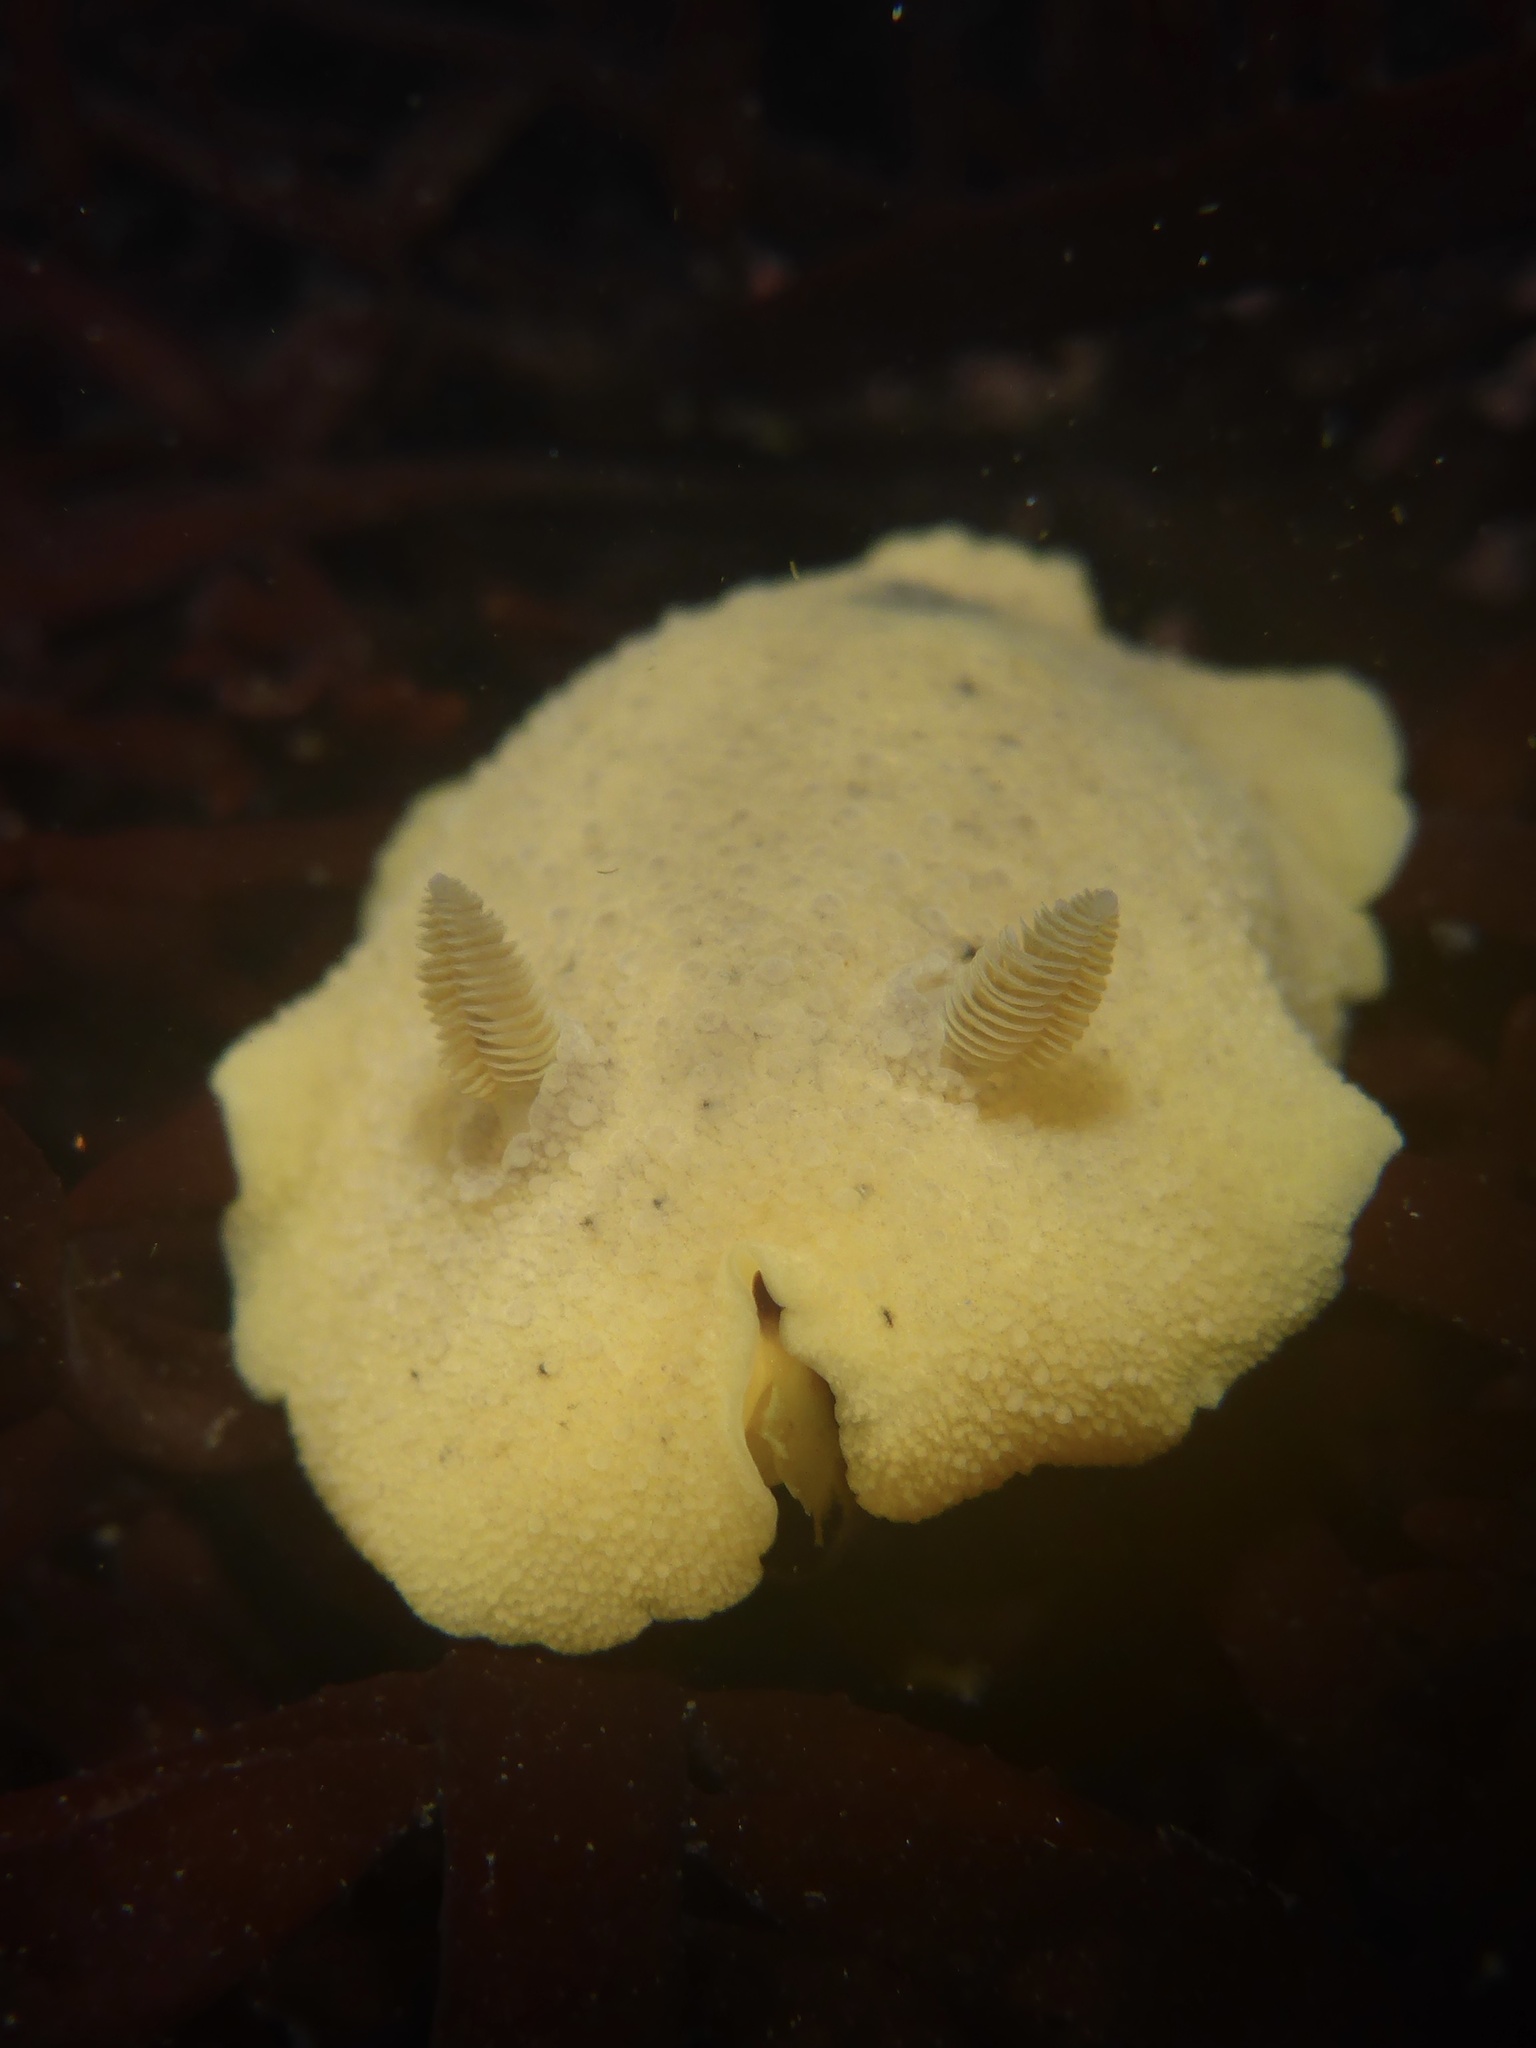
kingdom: Animalia
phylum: Mollusca
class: Gastropoda
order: Nudibranchia
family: Discodorididae
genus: Geitodoris
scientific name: Geitodoris heathi
